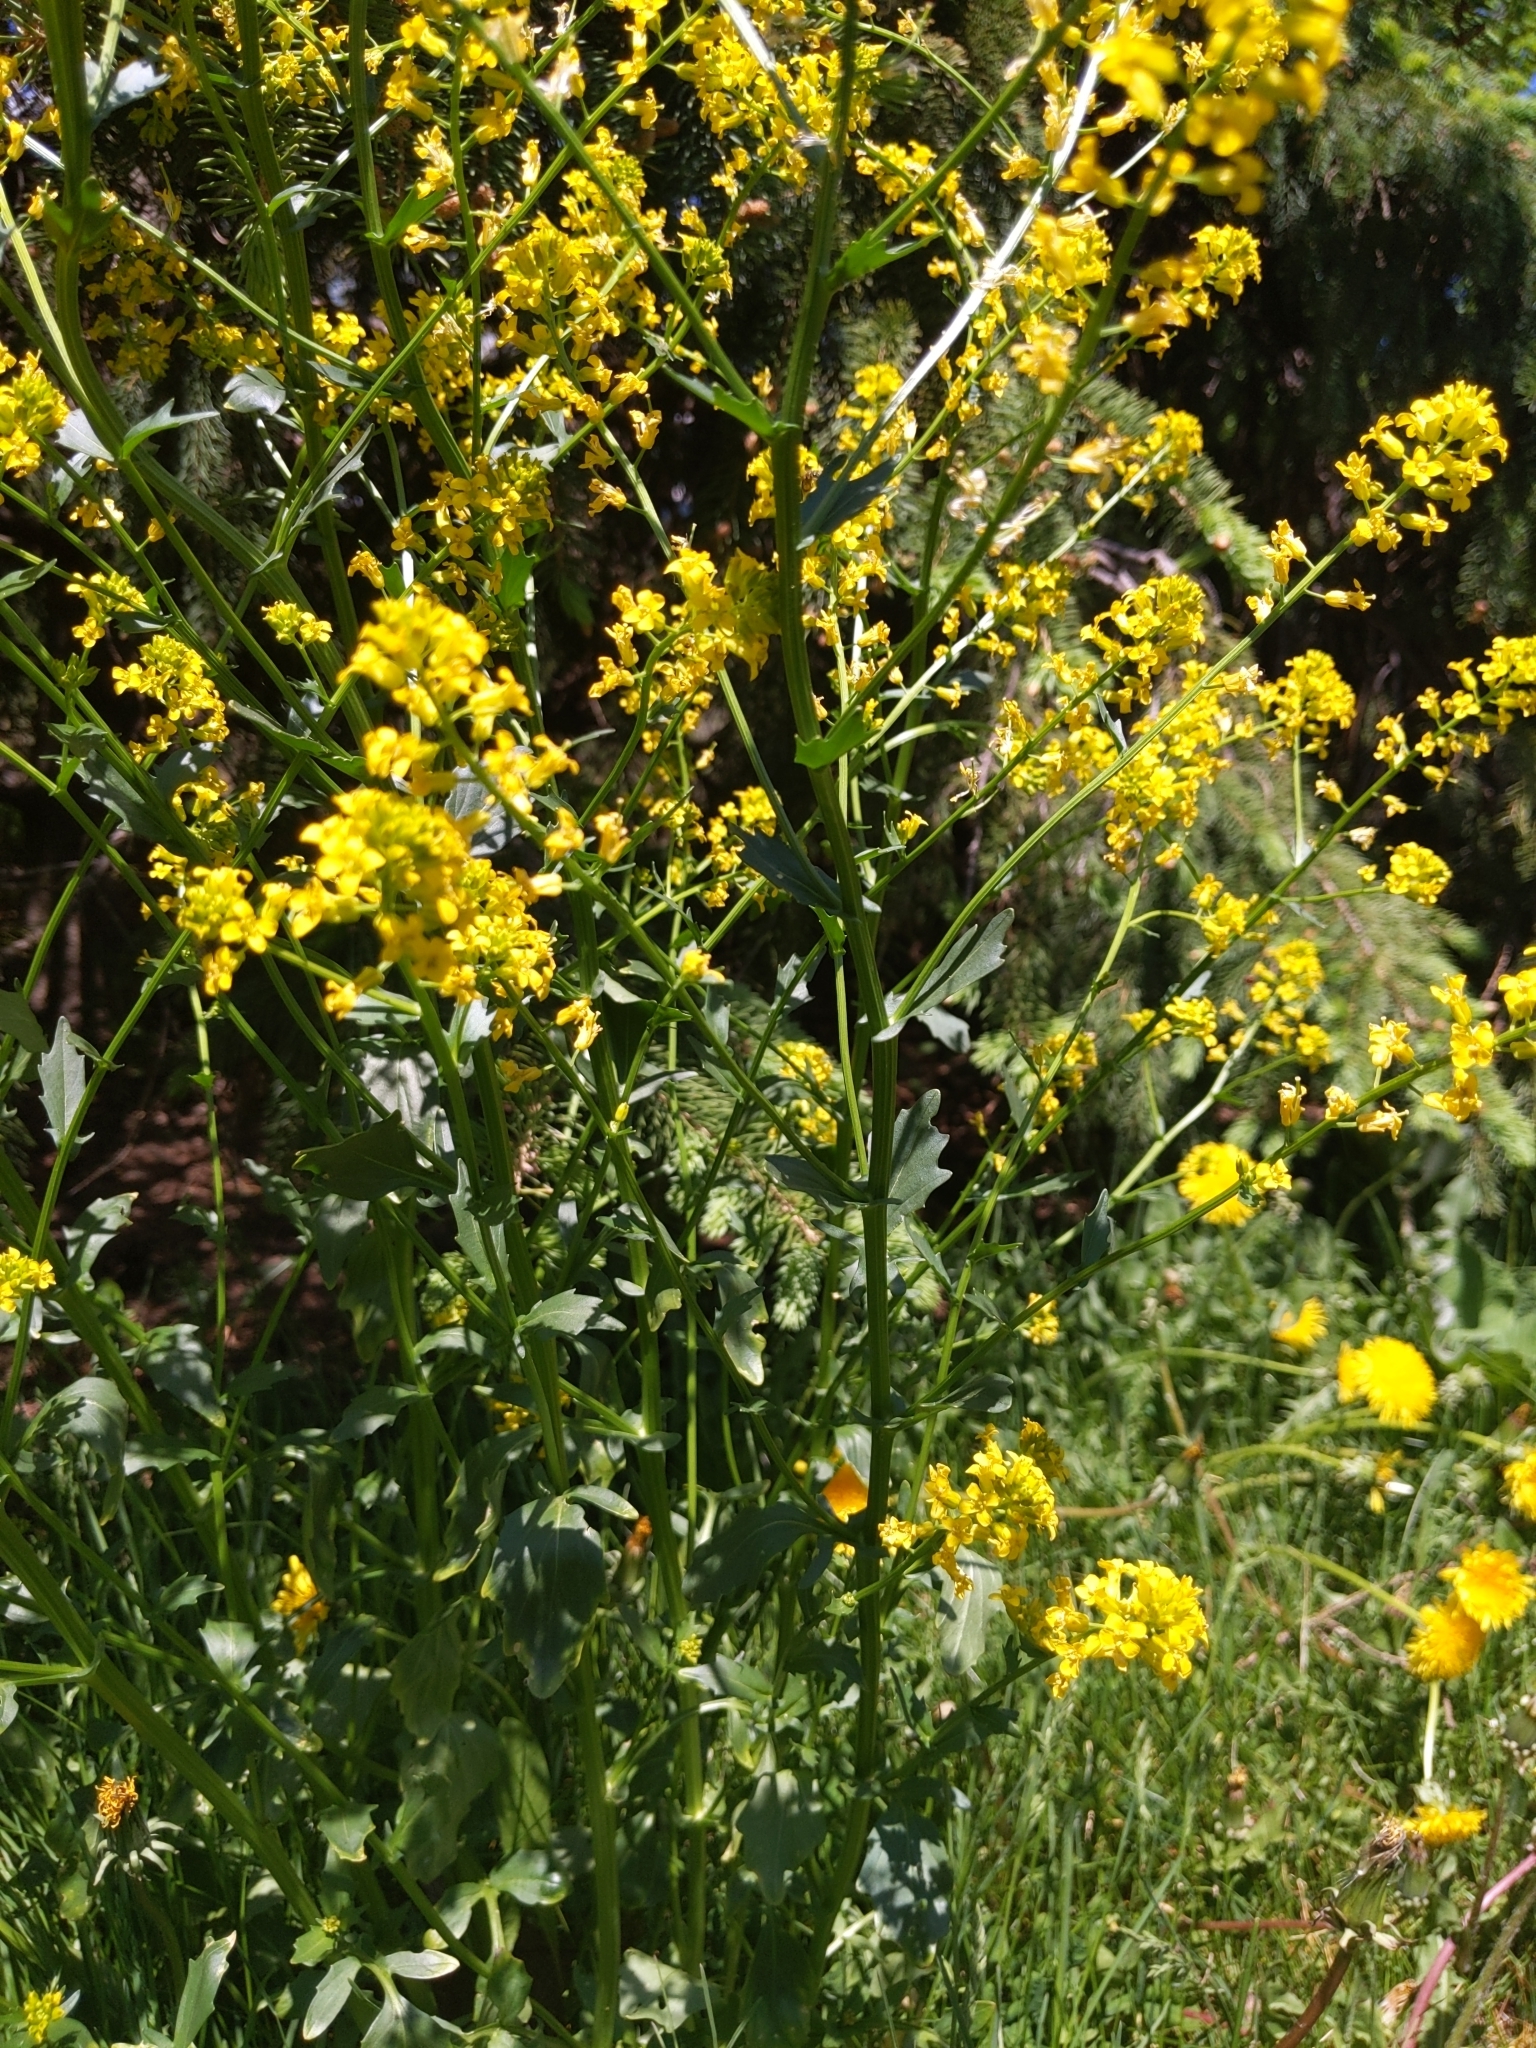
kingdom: Plantae
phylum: Tracheophyta
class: Magnoliopsida
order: Brassicales
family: Brassicaceae
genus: Barbarea
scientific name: Barbarea vulgaris
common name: Cressy-greens
